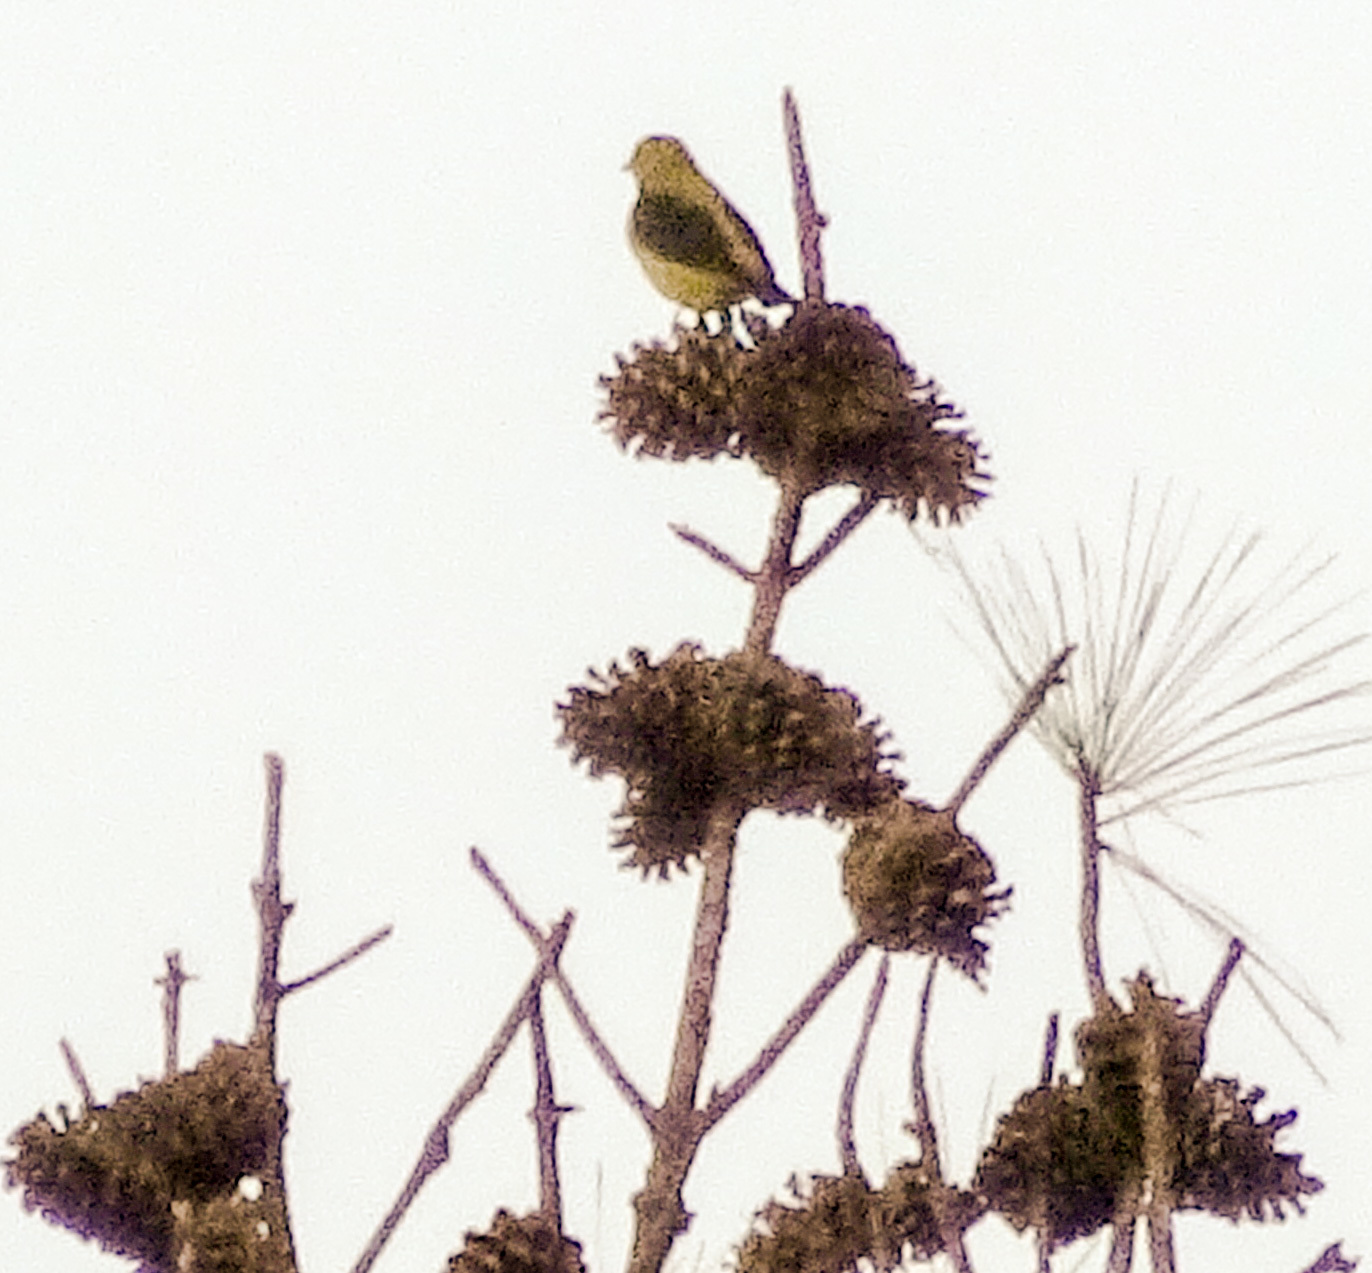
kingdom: Animalia
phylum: Chordata
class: Aves
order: Passeriformes
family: Cardinalidae
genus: Piranga
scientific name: Piranga olivacea
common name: Scarlet tanager
